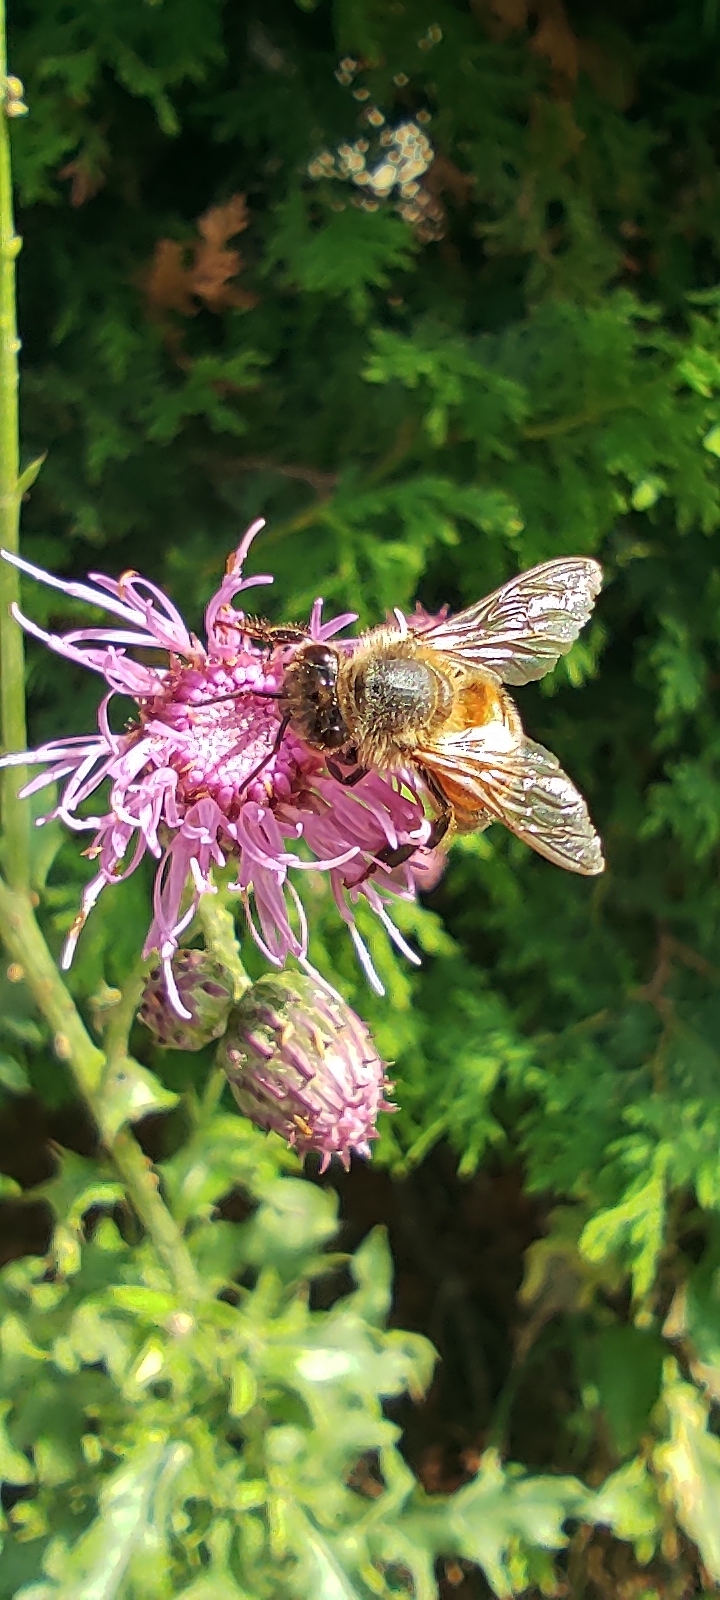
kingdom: Animalia
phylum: Arthropoda
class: Insecta
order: Hymenoptera
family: Apidae
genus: Apis
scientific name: Apis mellifera
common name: Honey bee
